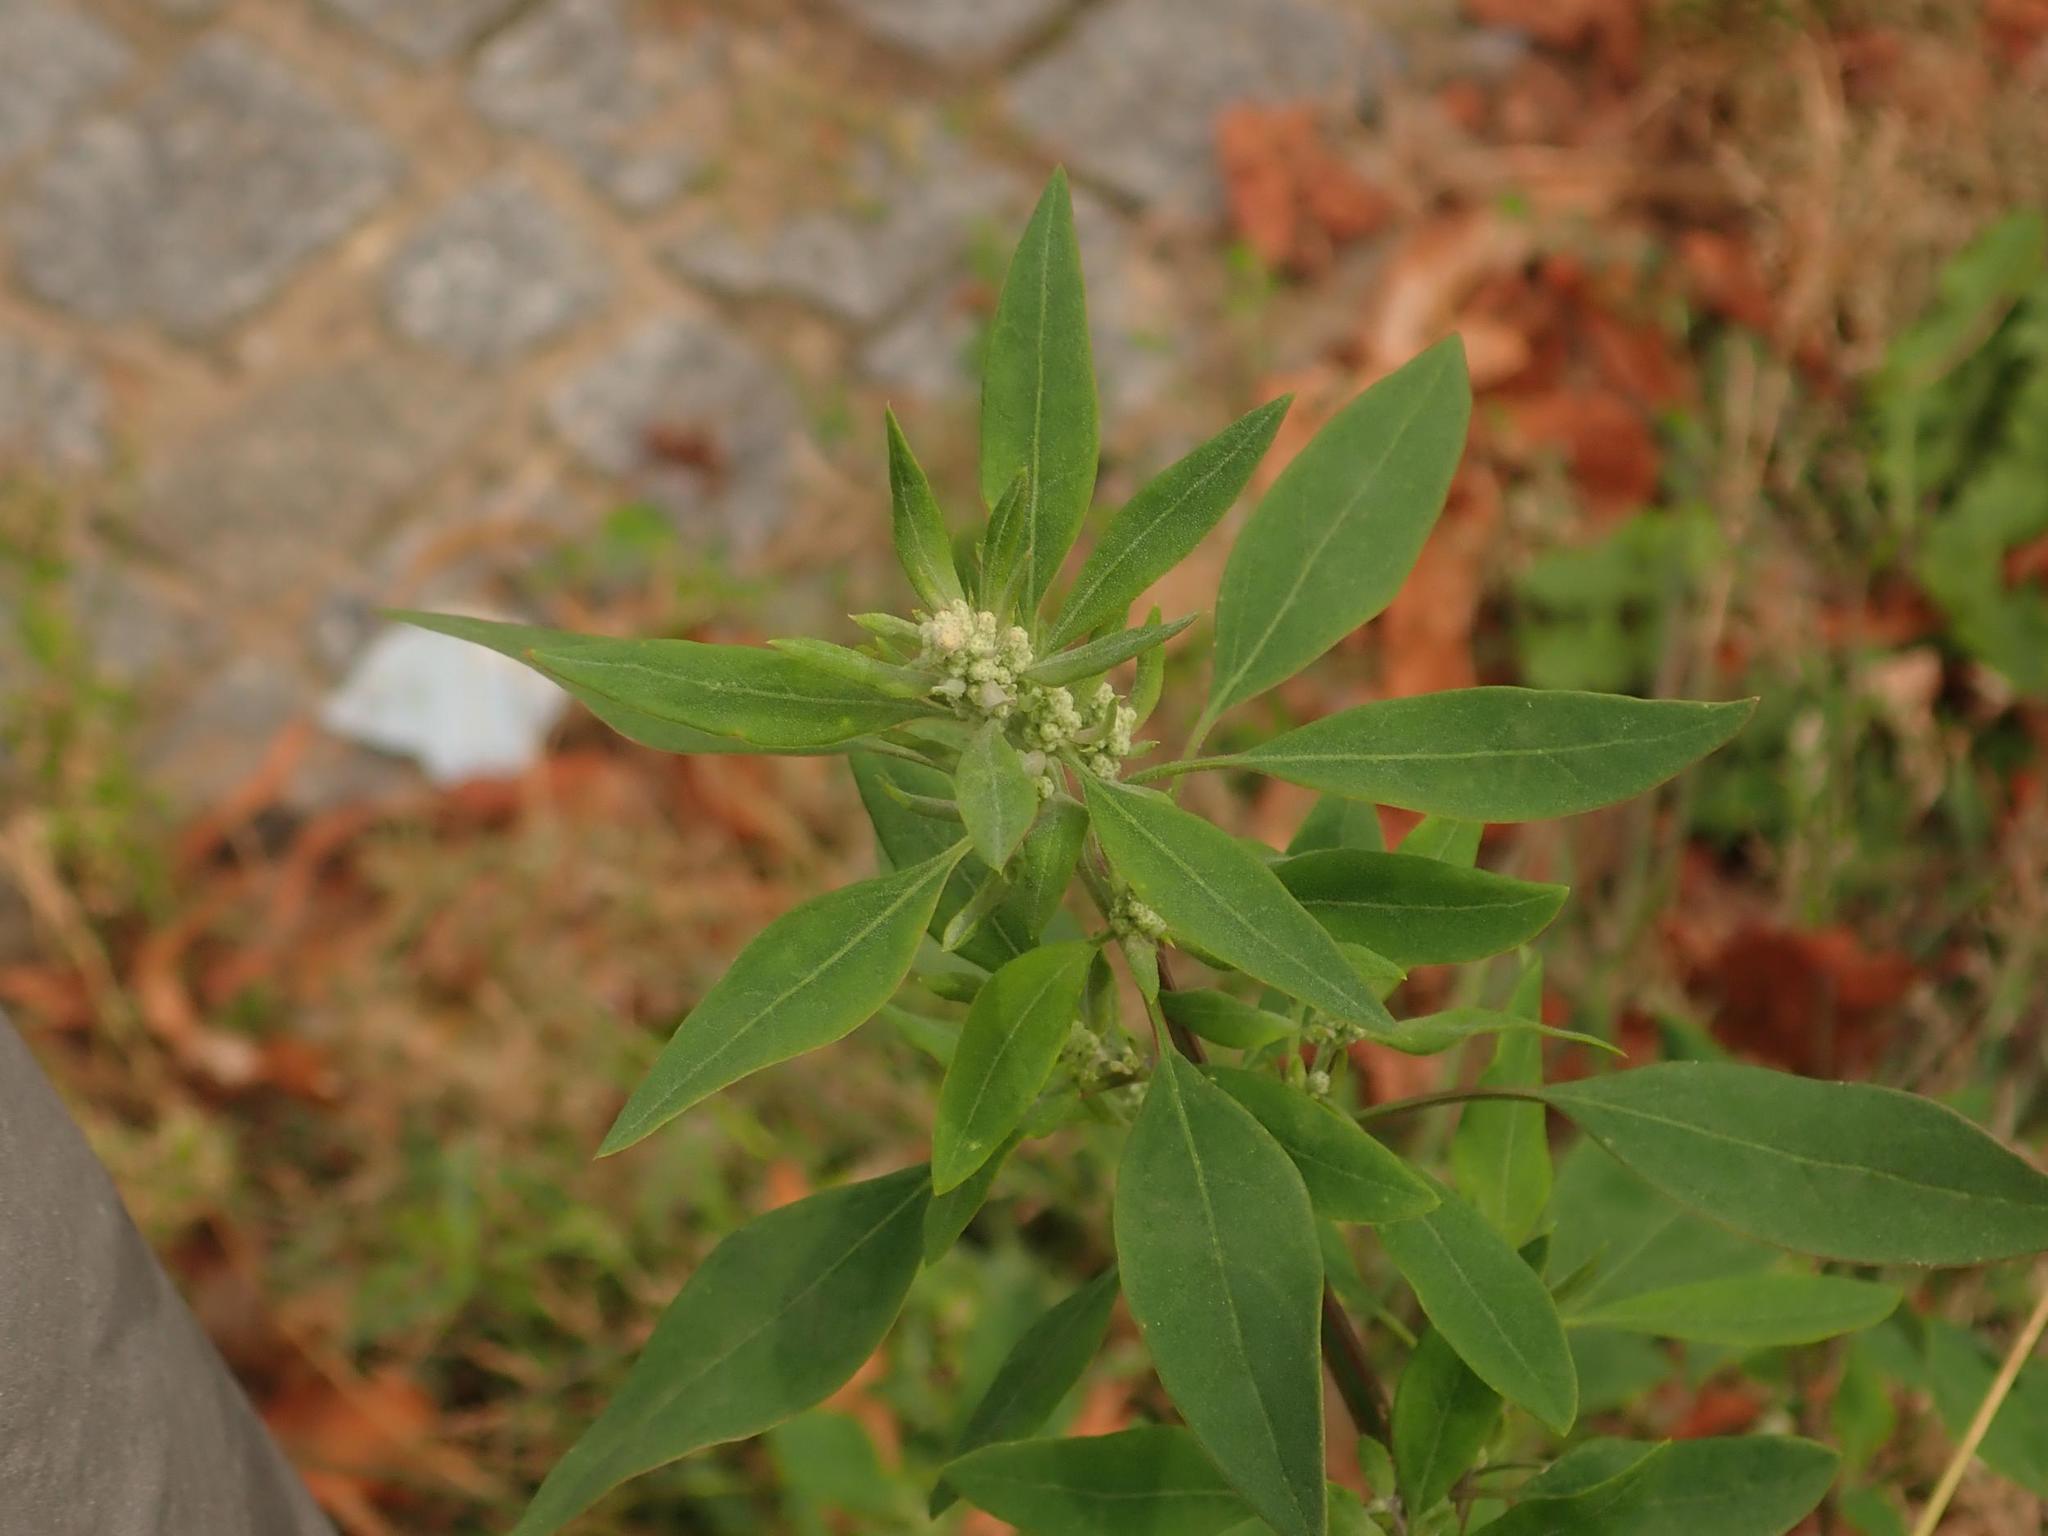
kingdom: Plantae
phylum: Tracheophyta
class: Magnoliopsida
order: Caryophyllales
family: Amaranthaceae
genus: Chenopodium
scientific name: Chenopodium album
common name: Fat-hen
